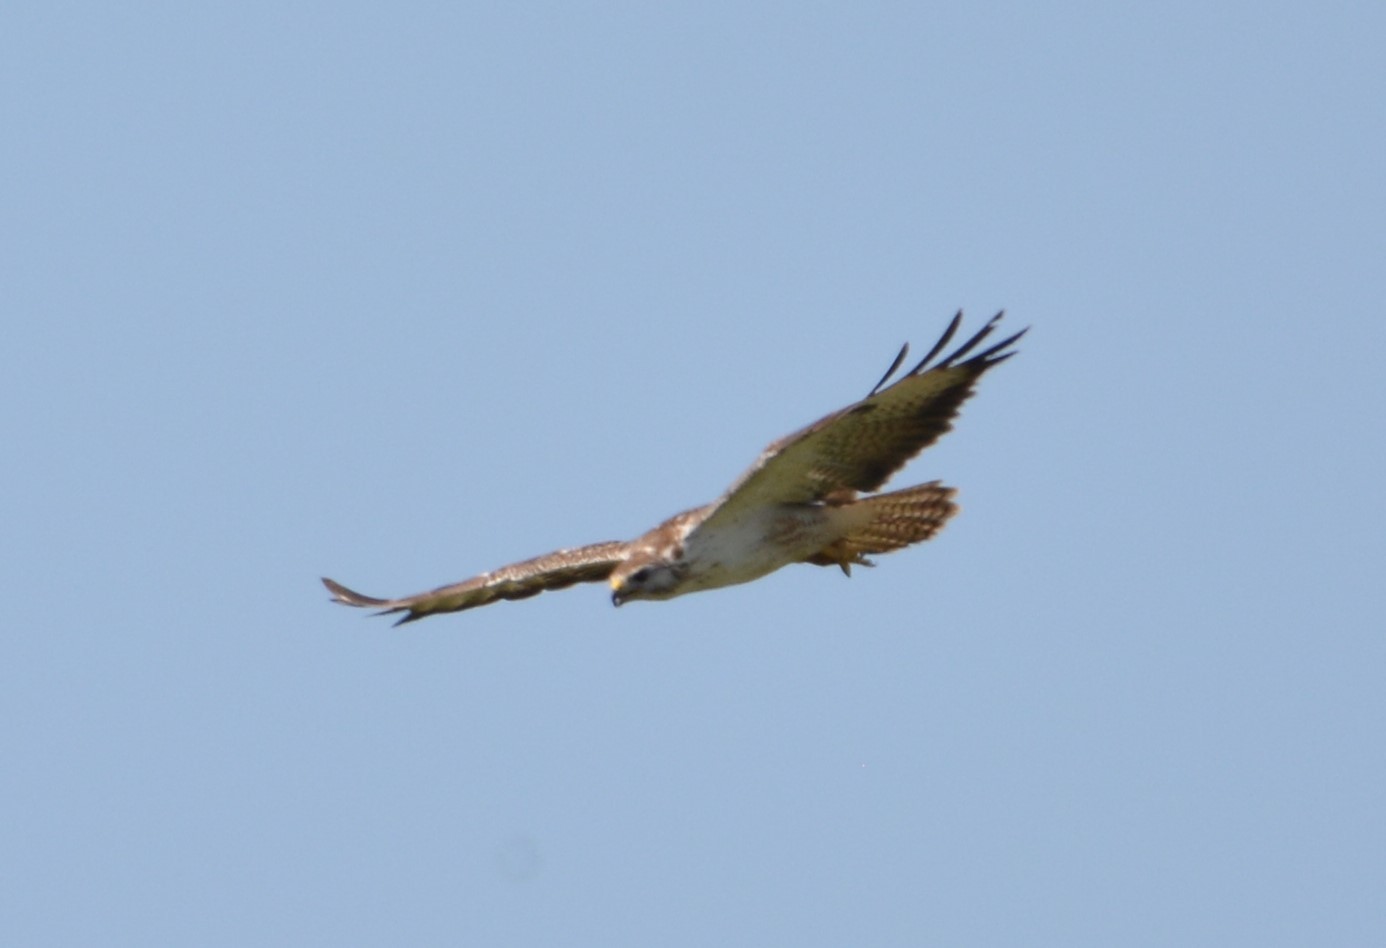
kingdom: Animalia
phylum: Chordata
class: Aves
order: Accipitriformes
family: Accipitridae
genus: Buteo
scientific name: Buteo buteo
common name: Common buzzard
